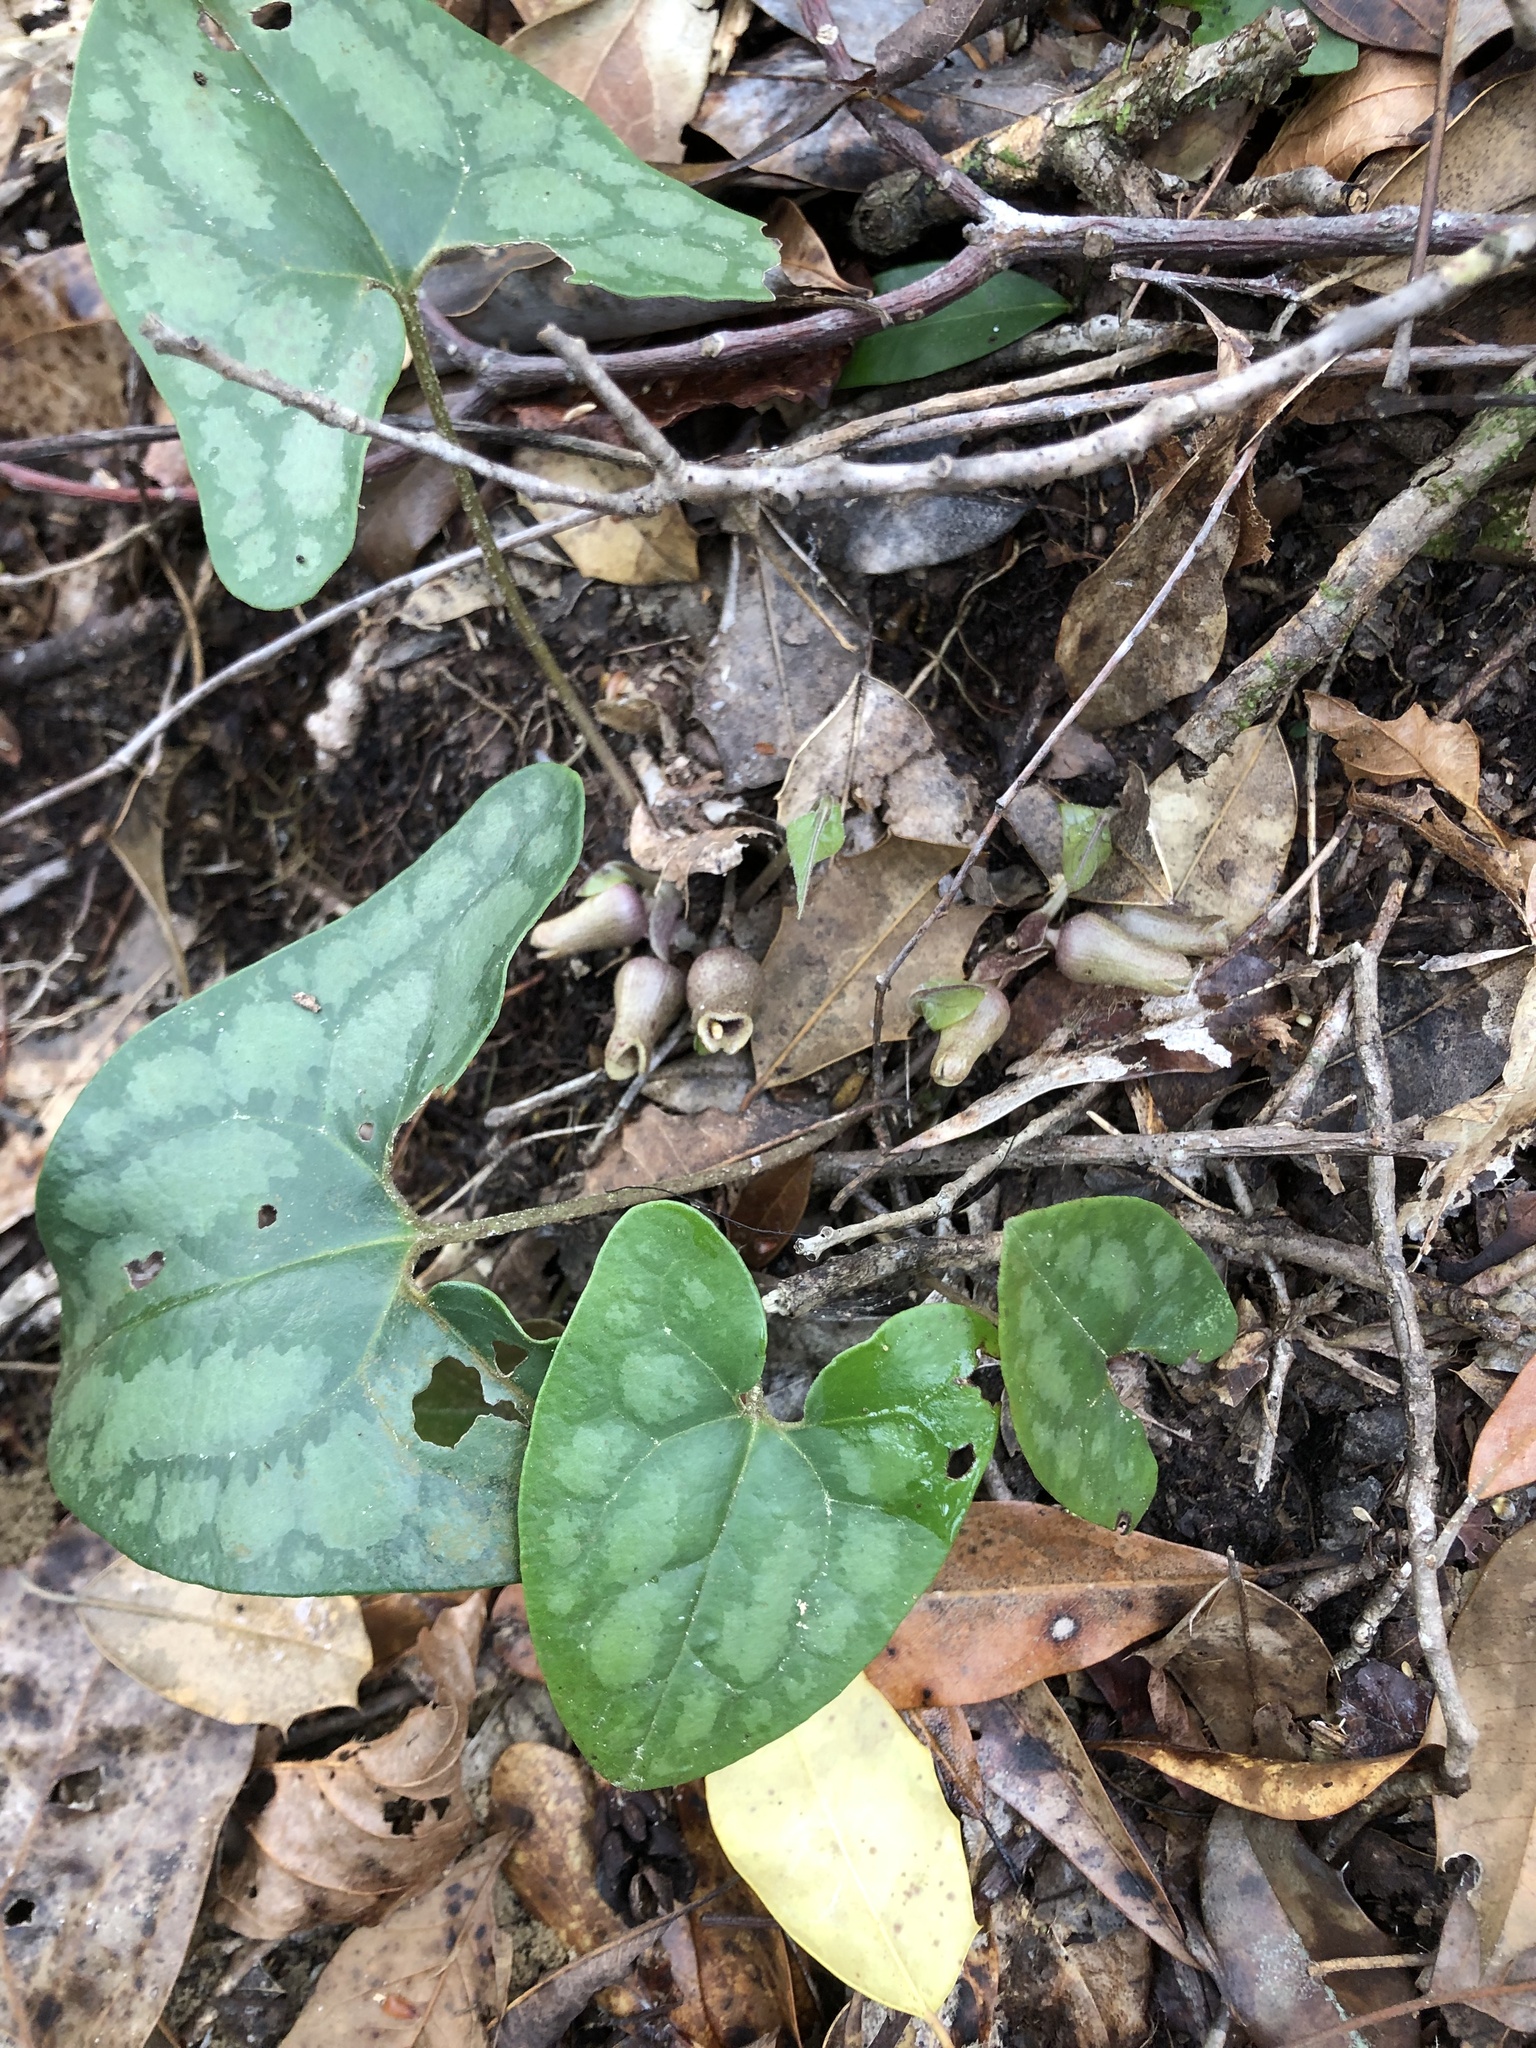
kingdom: Plantae
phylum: Tracheophyta
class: Magnoliopsida
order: Piperales
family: Aristolochiaceae
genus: Hexastylis
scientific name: Hexastylis arifolia
